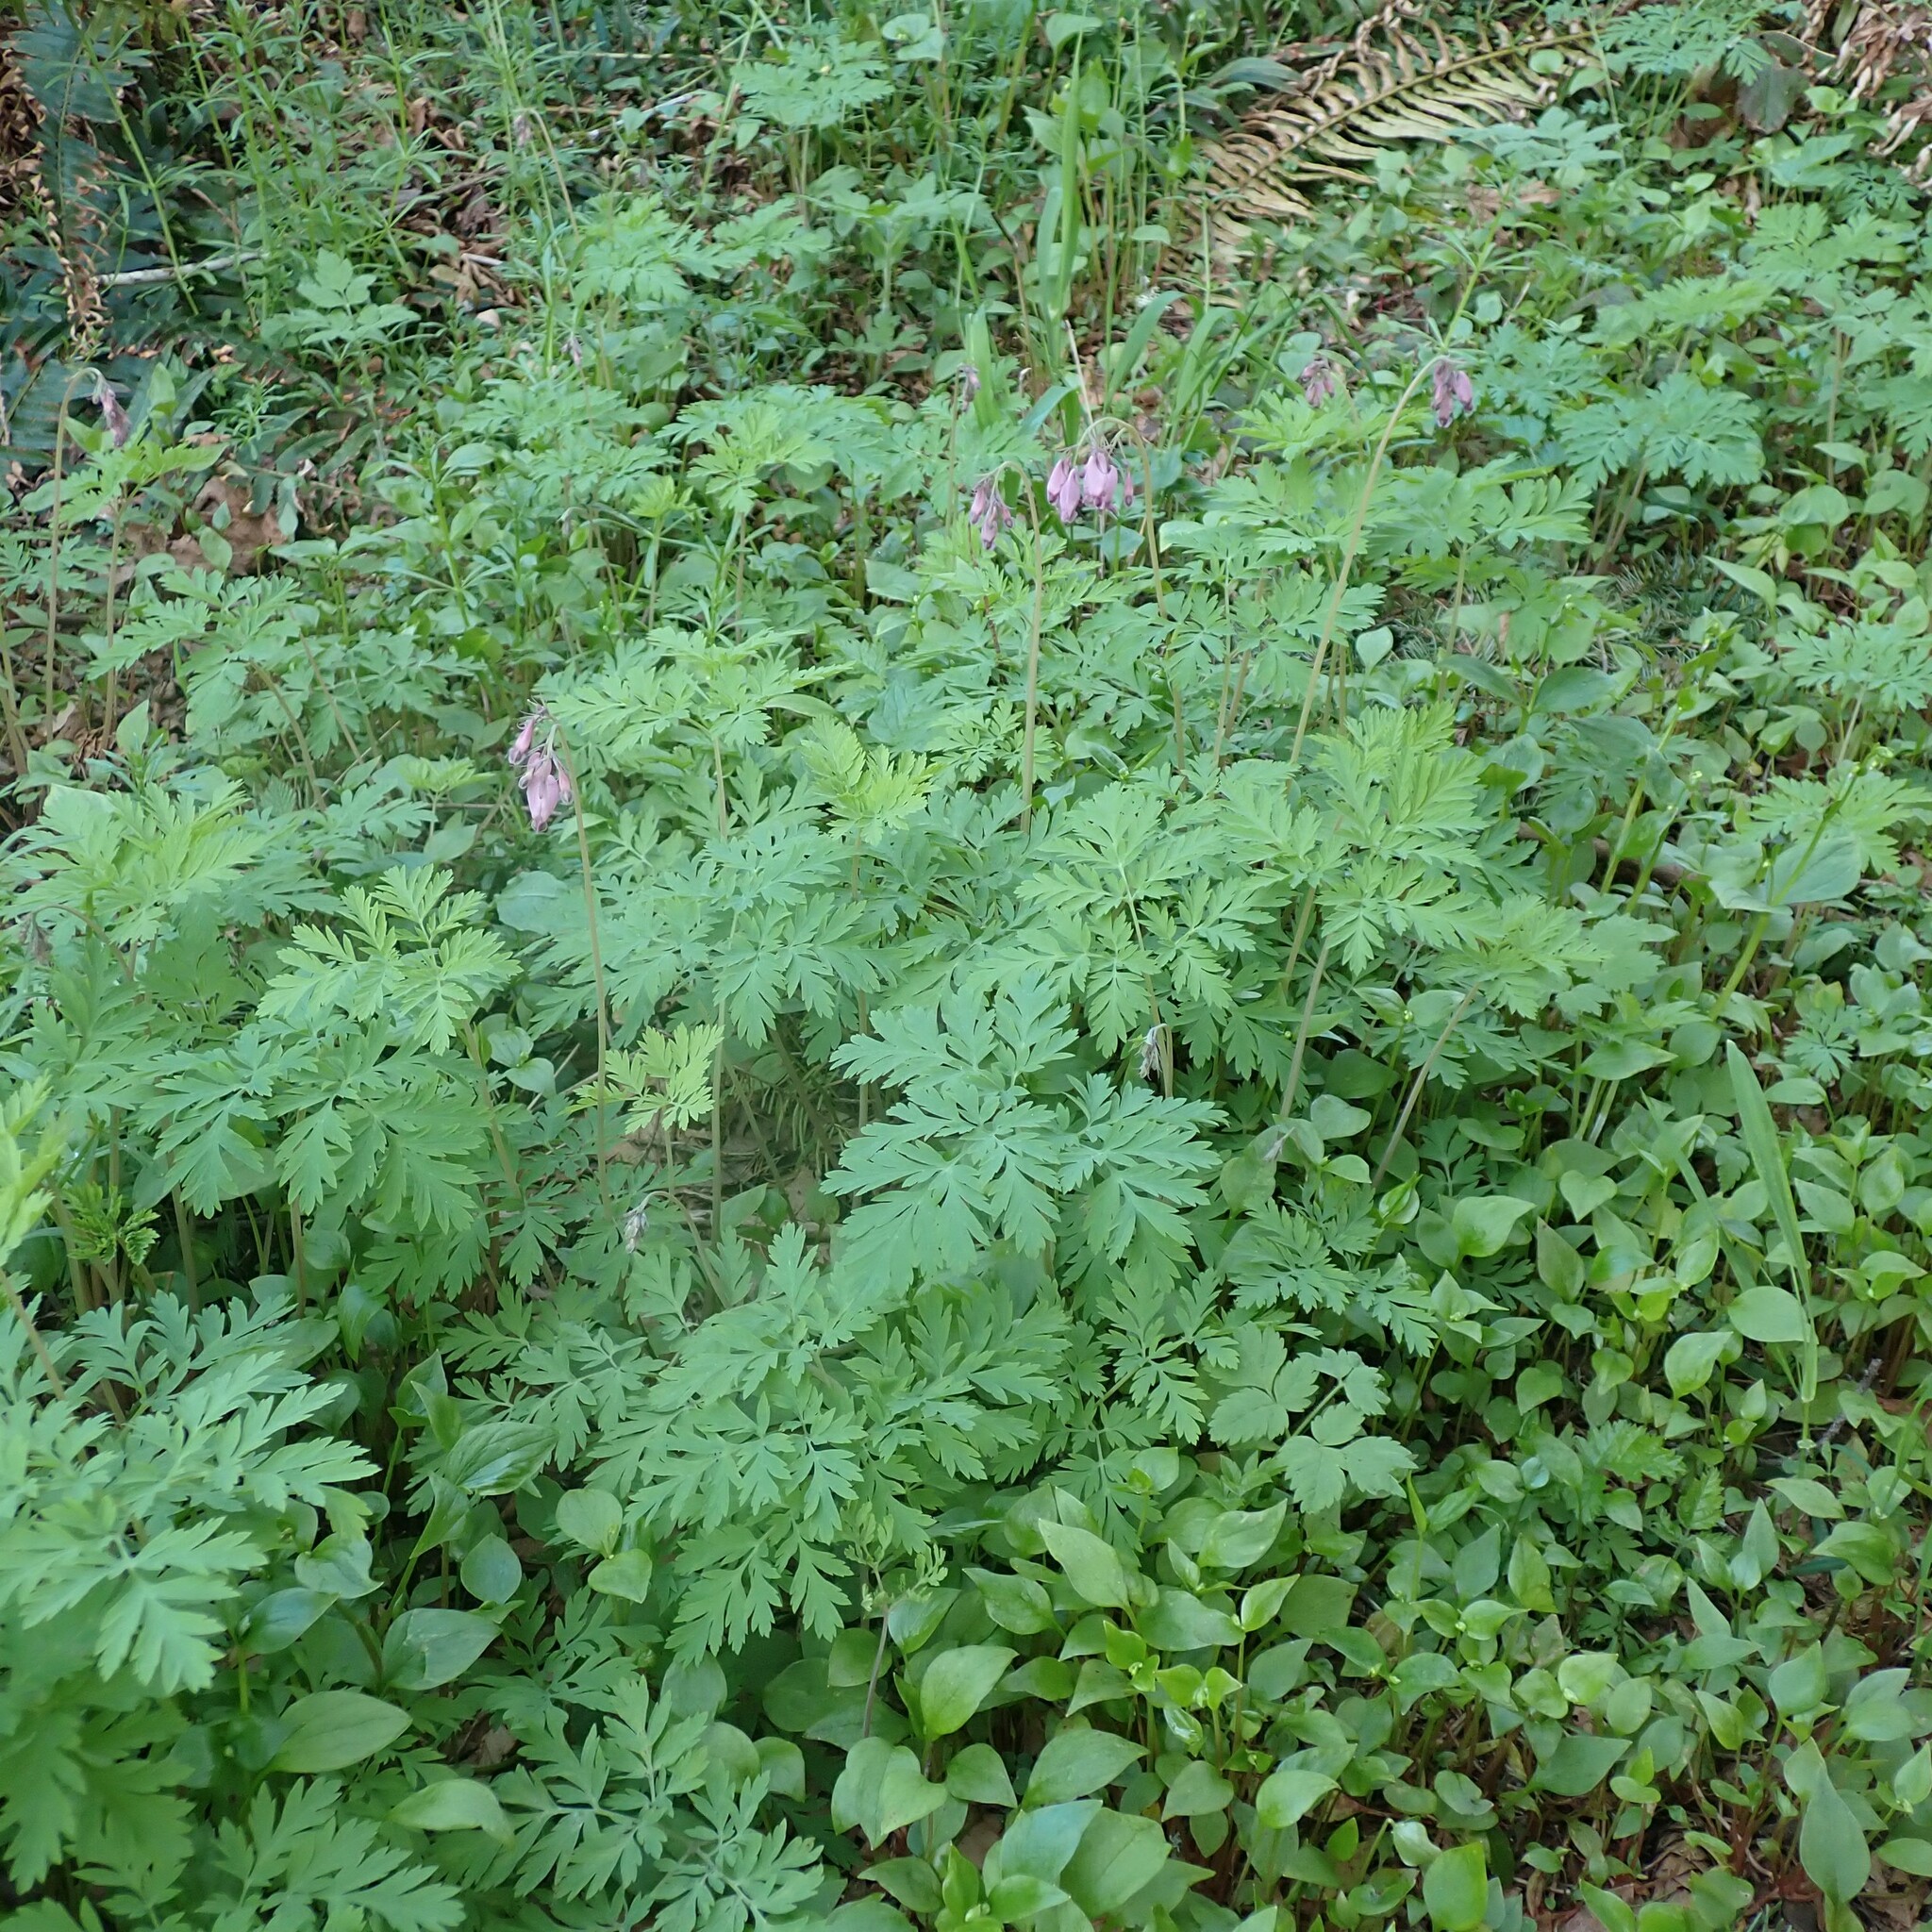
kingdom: Plantae
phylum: Tracheophyta
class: Magnoliopsida
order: Ranunculales
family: Papaveraceae
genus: Dicentra
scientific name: Dicentra formosa
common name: Bleeding-heart
